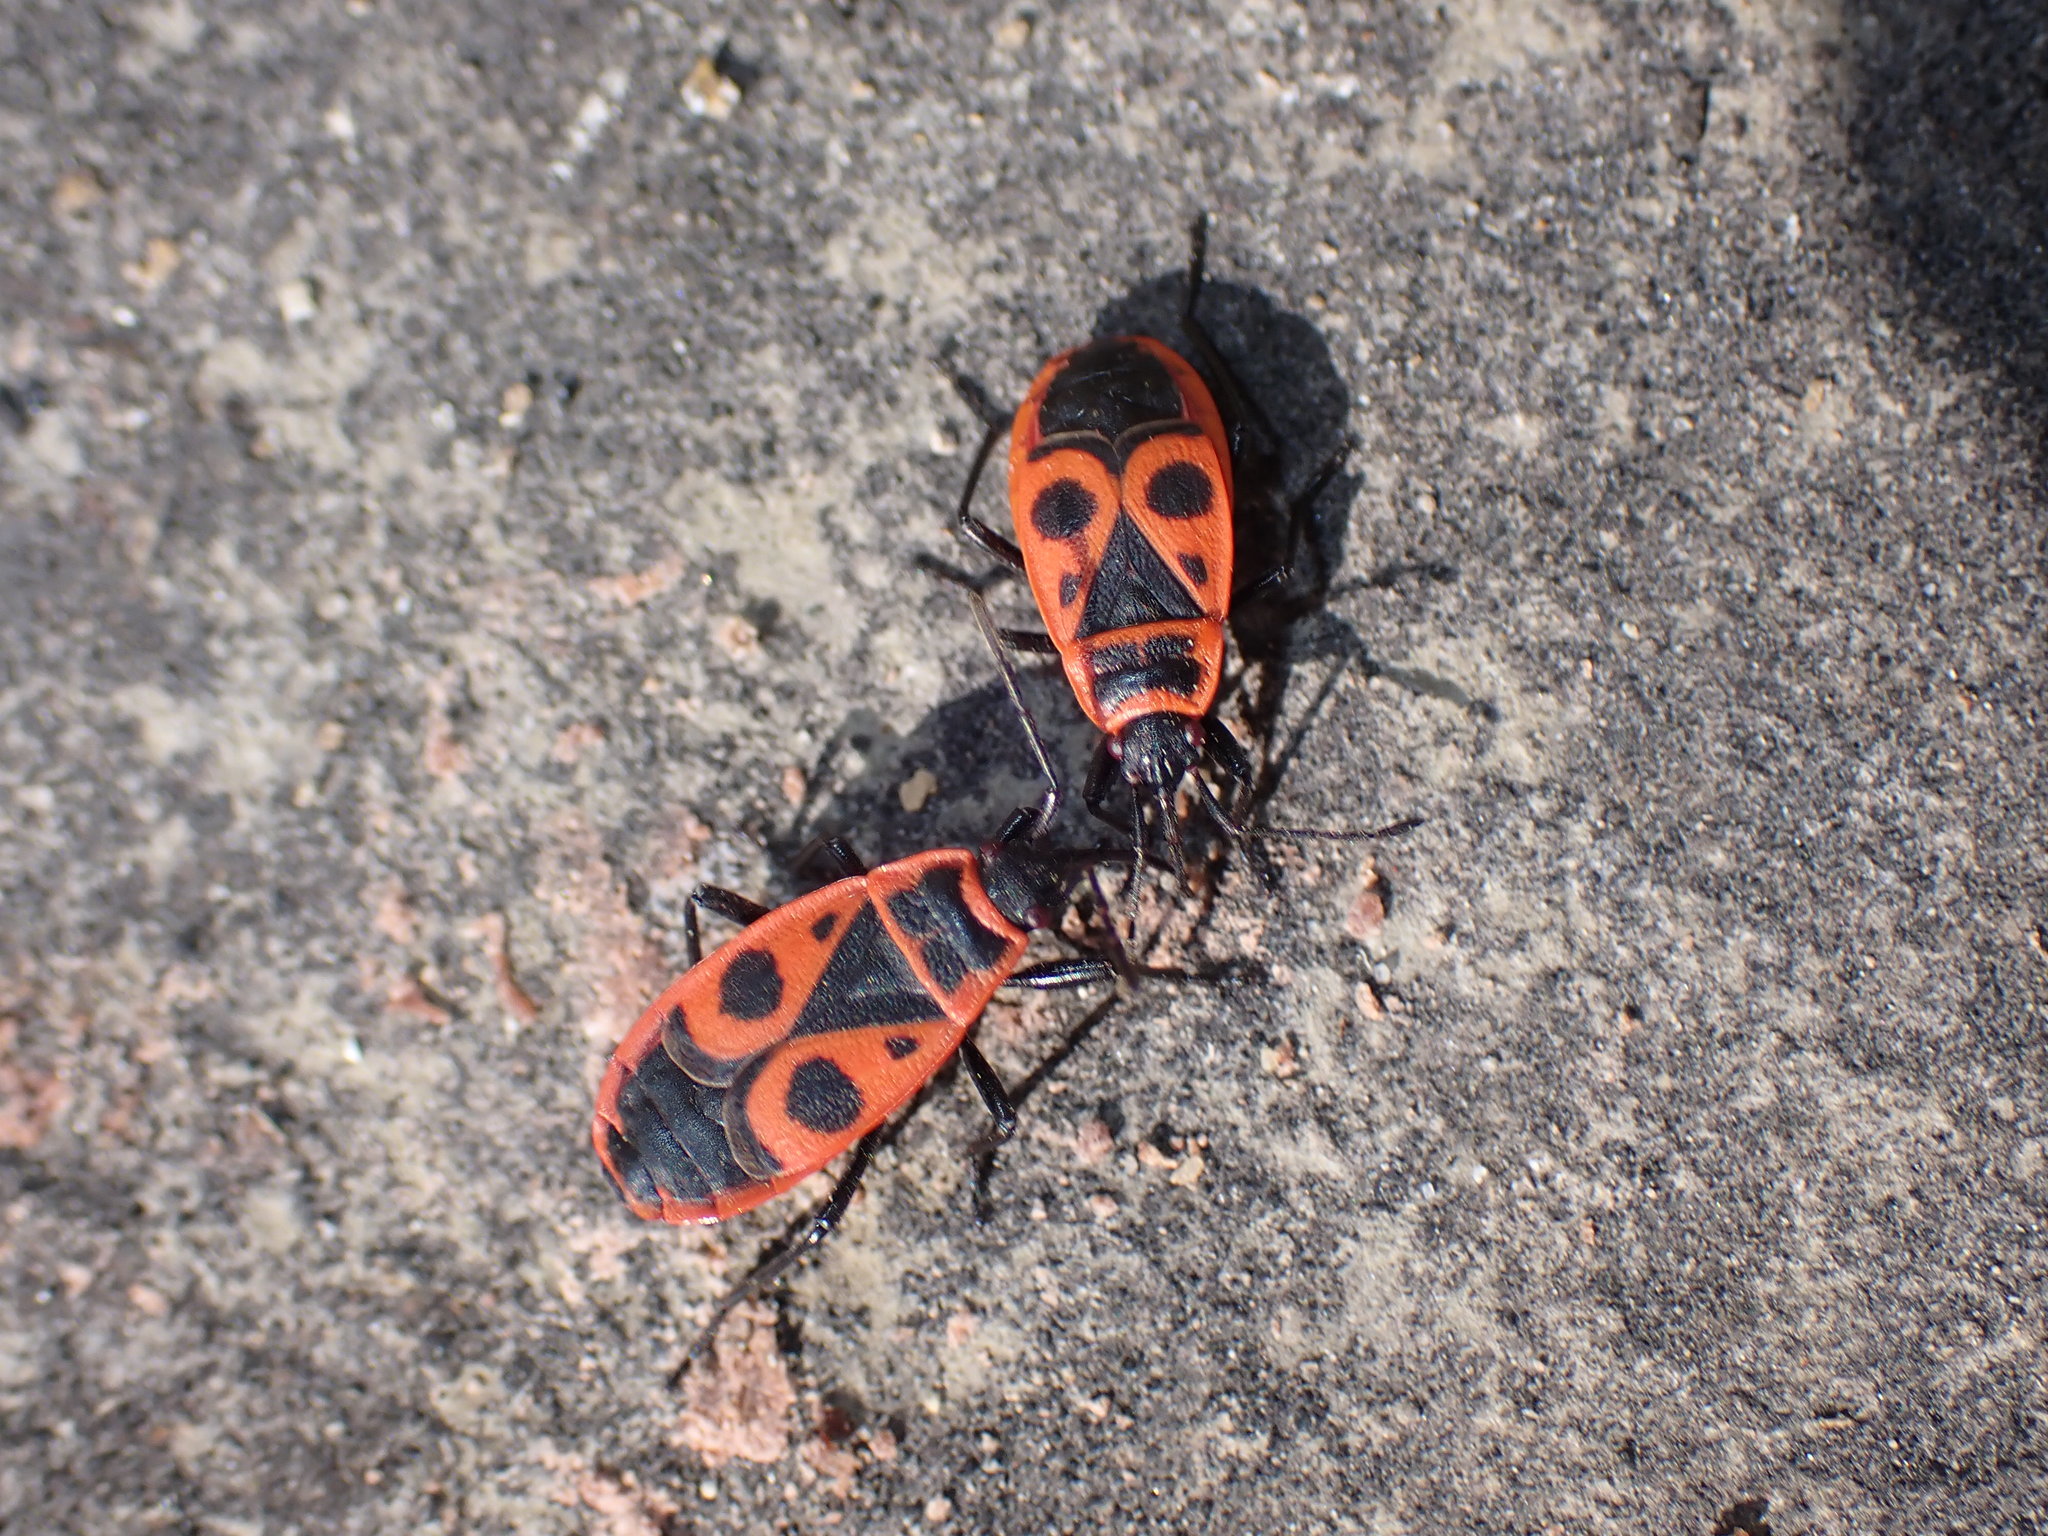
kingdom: Animalia
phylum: Arthropoda
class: Insecta
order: Hemiptera
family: Pyrrhocoridae
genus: Pyrrhocoris
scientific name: Pyrrhocoris apterus
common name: Firebug
